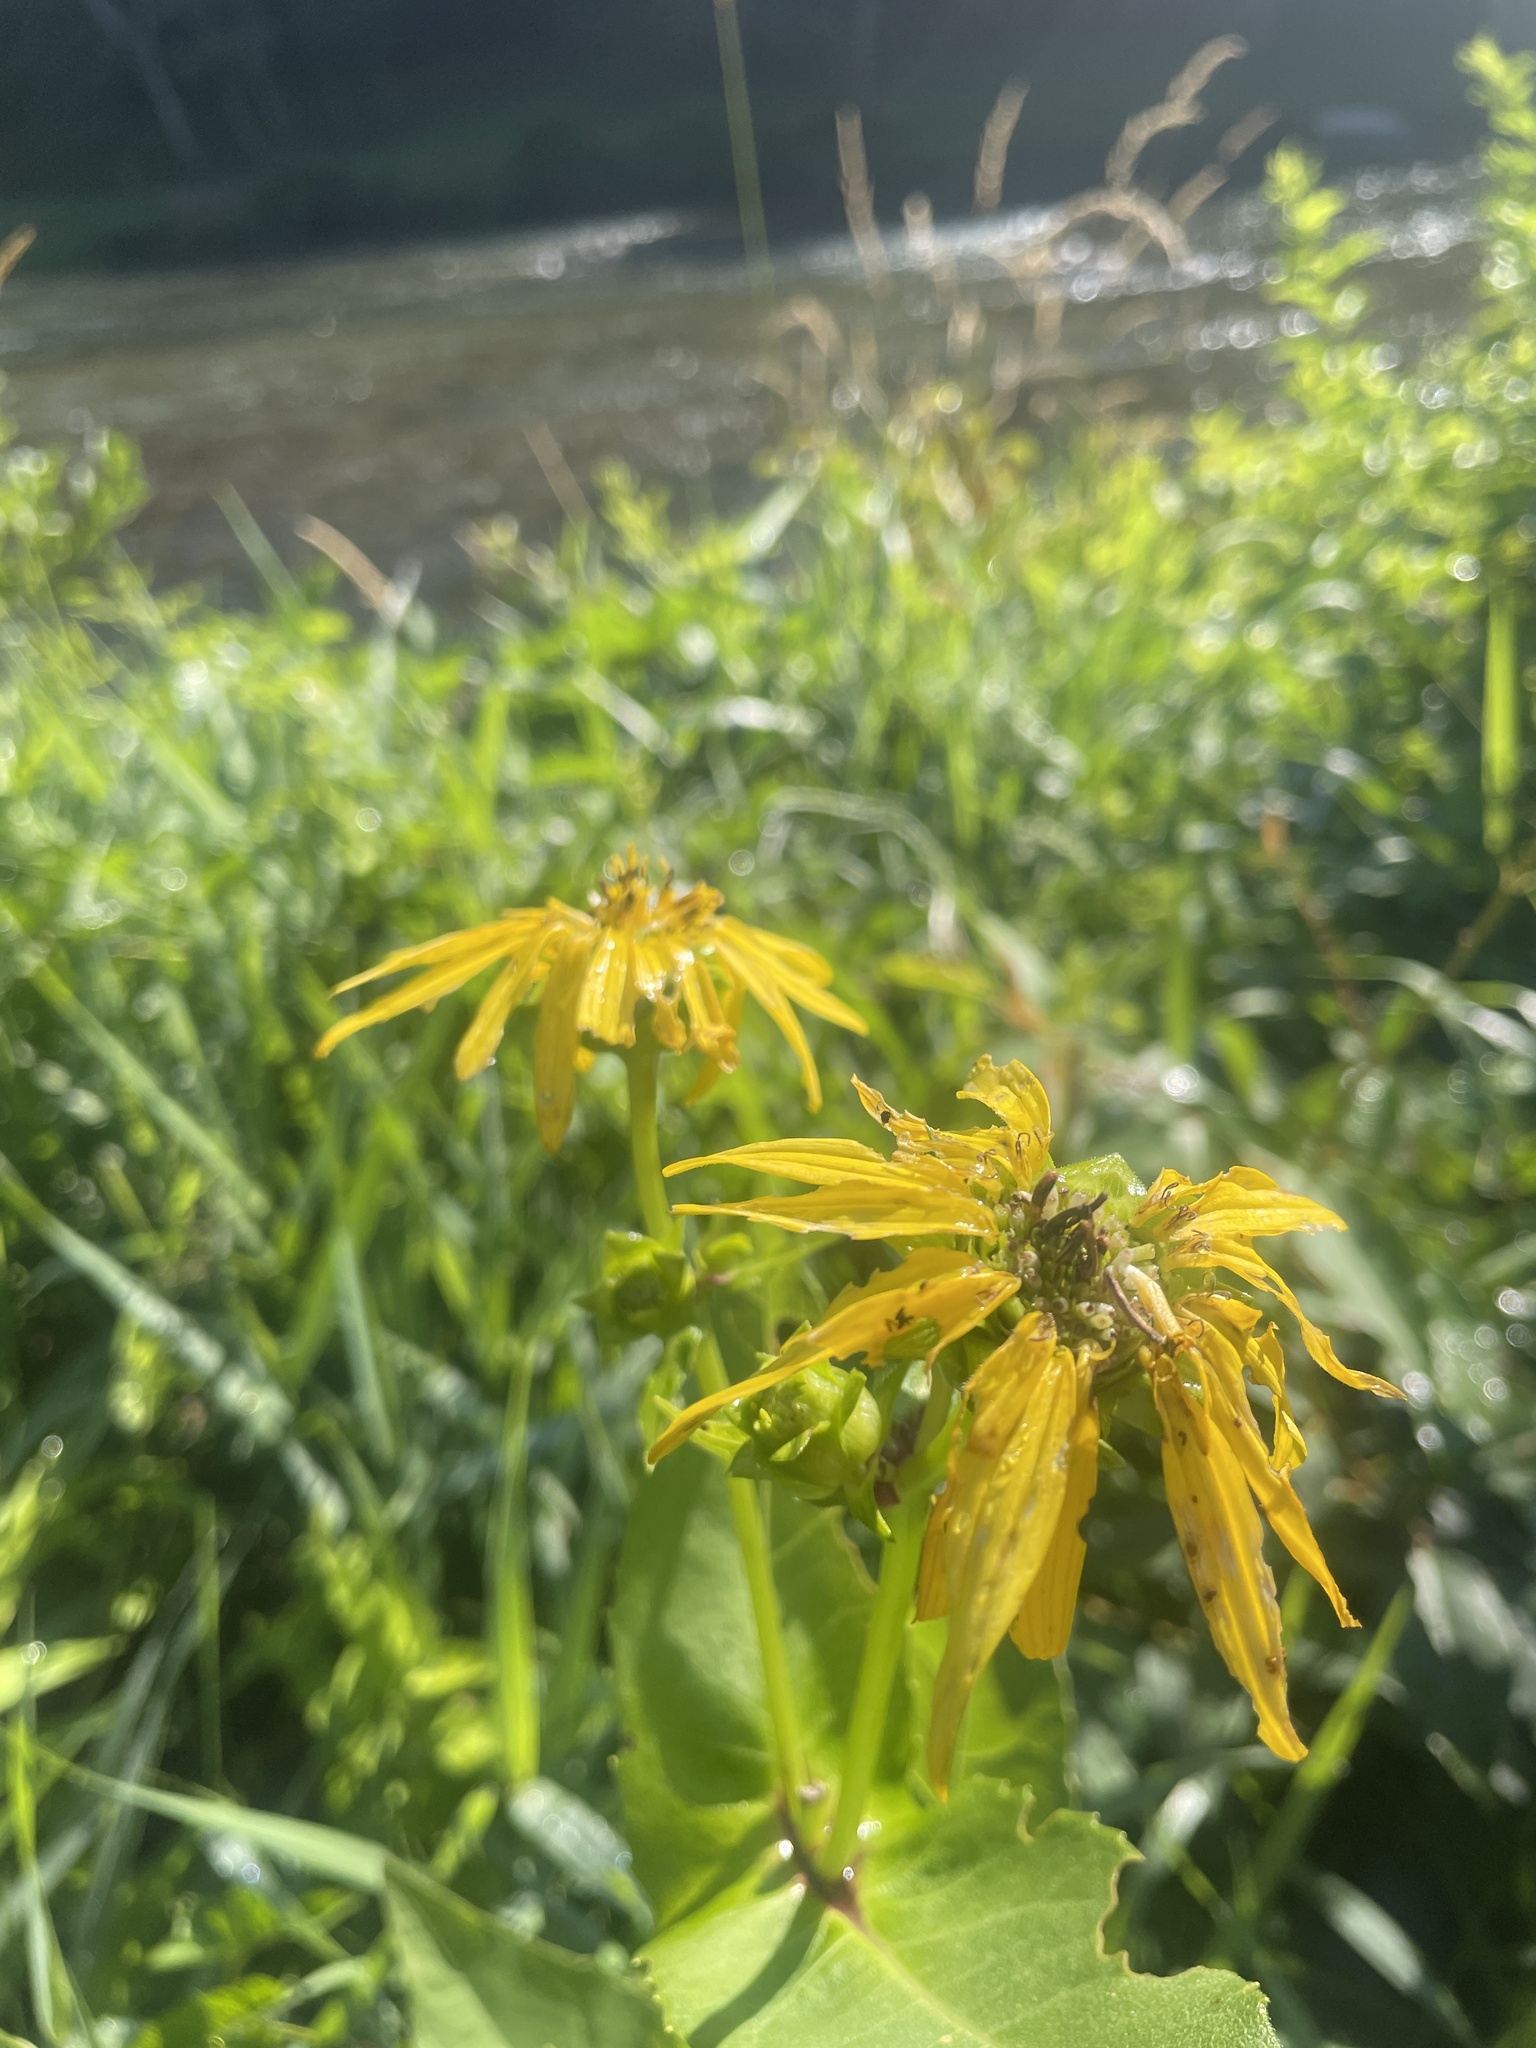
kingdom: Plantae
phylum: Tracheophyta
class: Magnoliopsida
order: Asterales
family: Asteraceae
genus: Silphium
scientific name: Silphium perfoliatum
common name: Cup-plant
